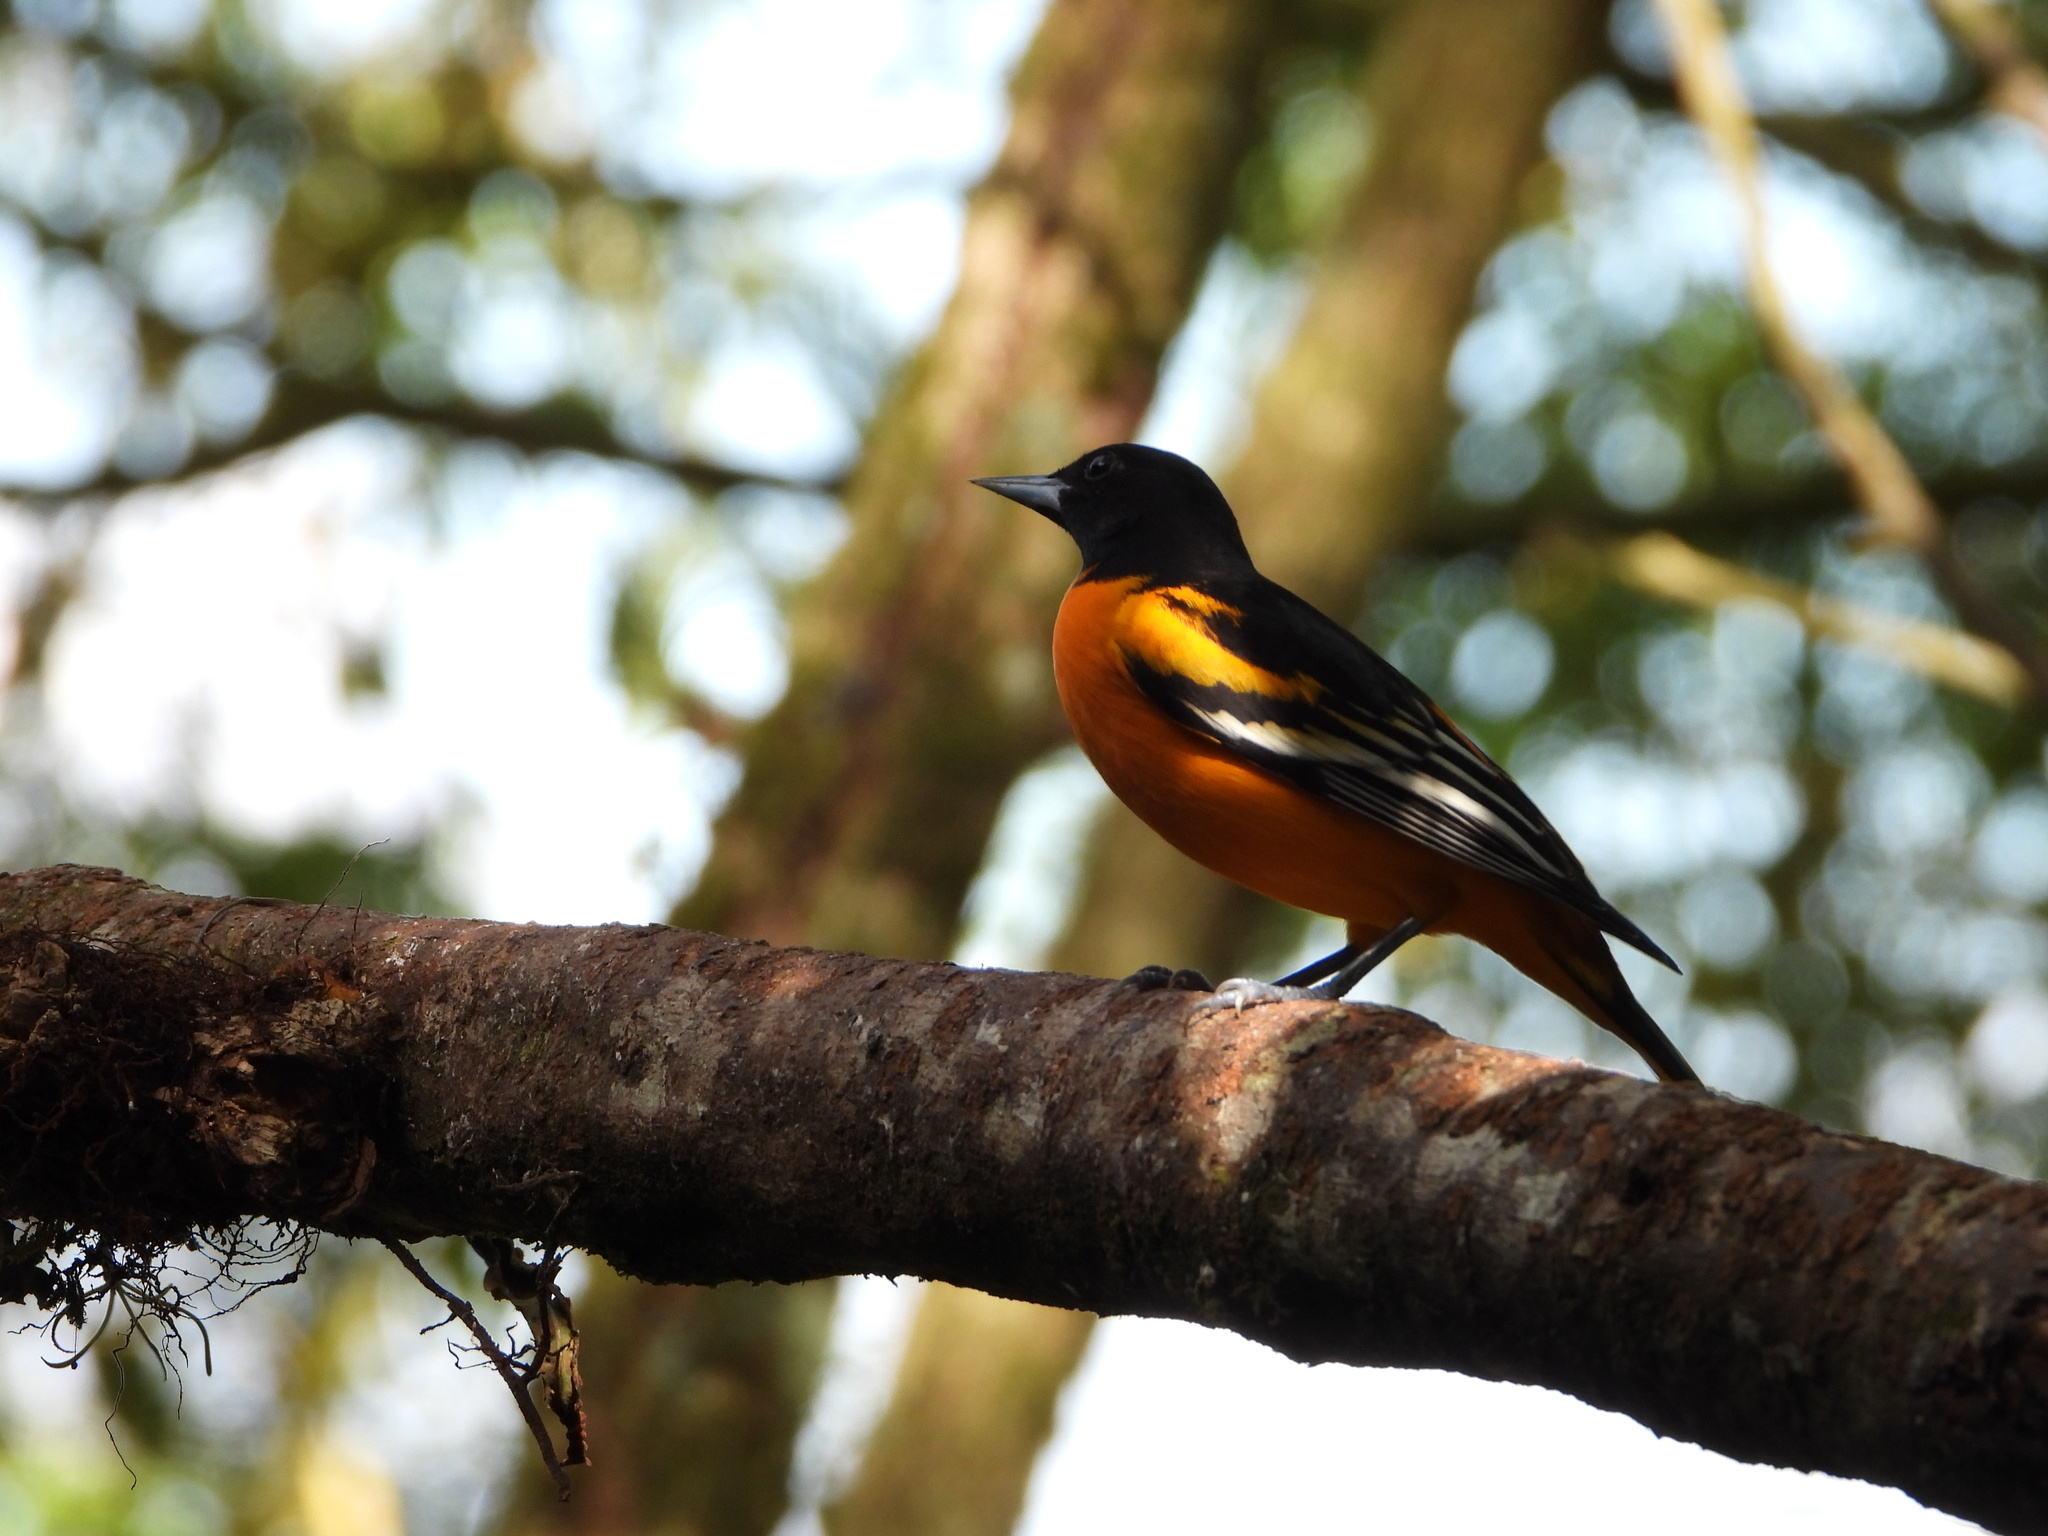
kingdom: Animalia
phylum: Chordata
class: Aves
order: Passeriformes
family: Icteridae
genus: Icterus
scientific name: Icterus galbula
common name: Baltimore oriole
